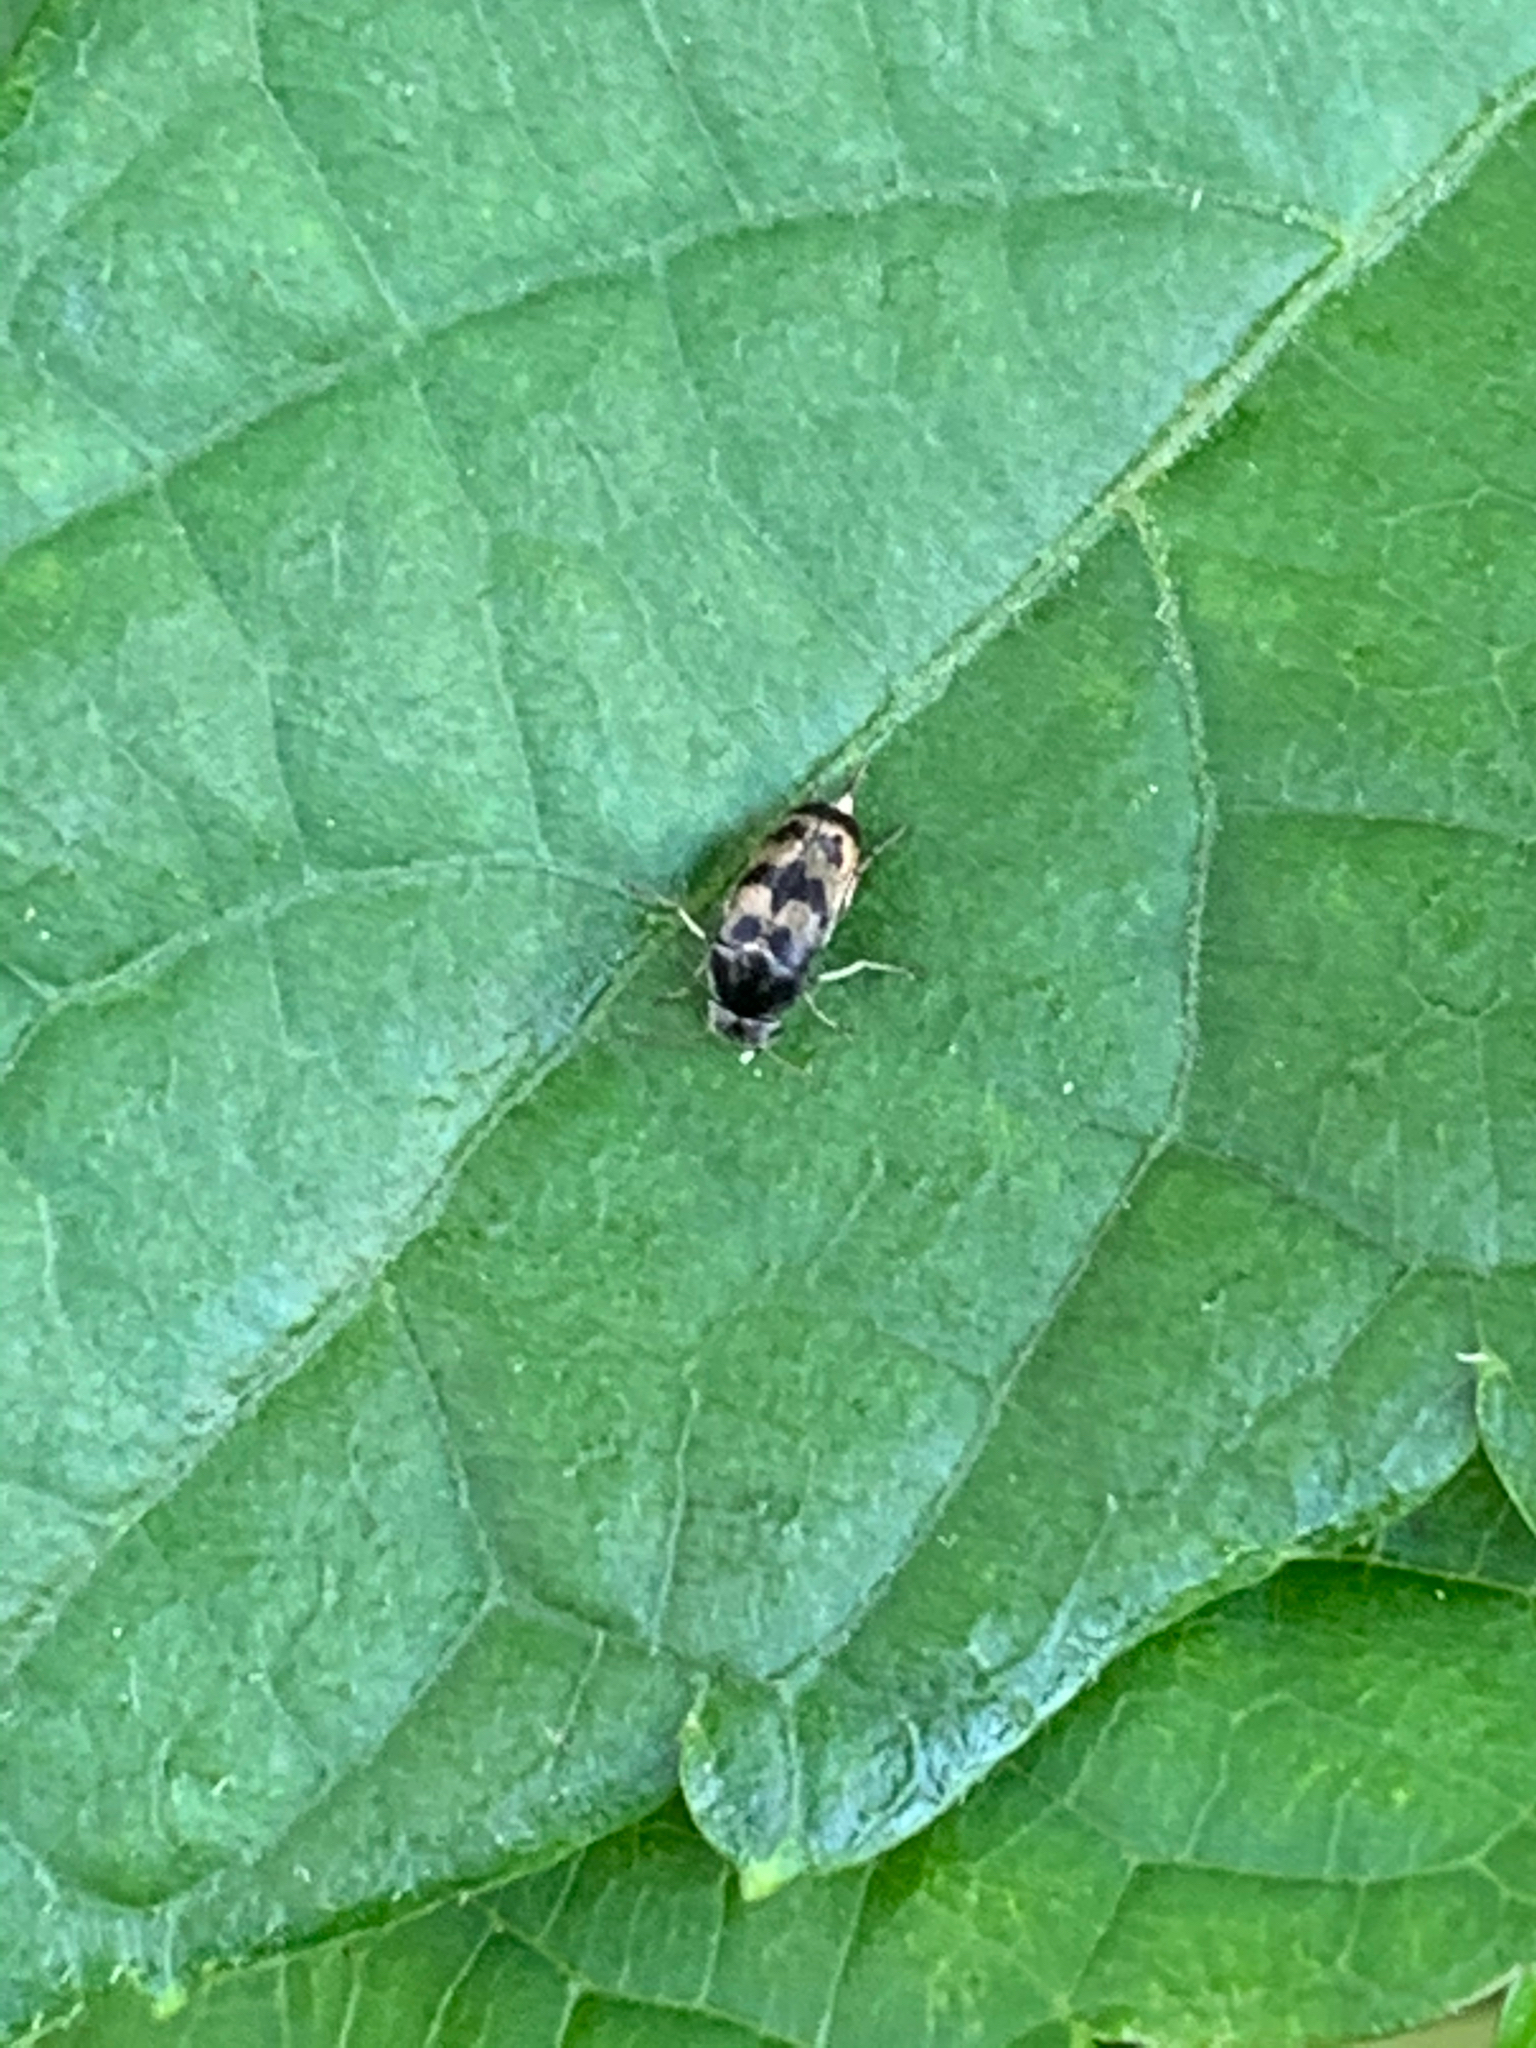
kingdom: Animalia
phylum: Arthropoda
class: Insecta
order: Coleoptera
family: Mordellidae
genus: Paramordellaria
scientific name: Paramordellaria triloba
